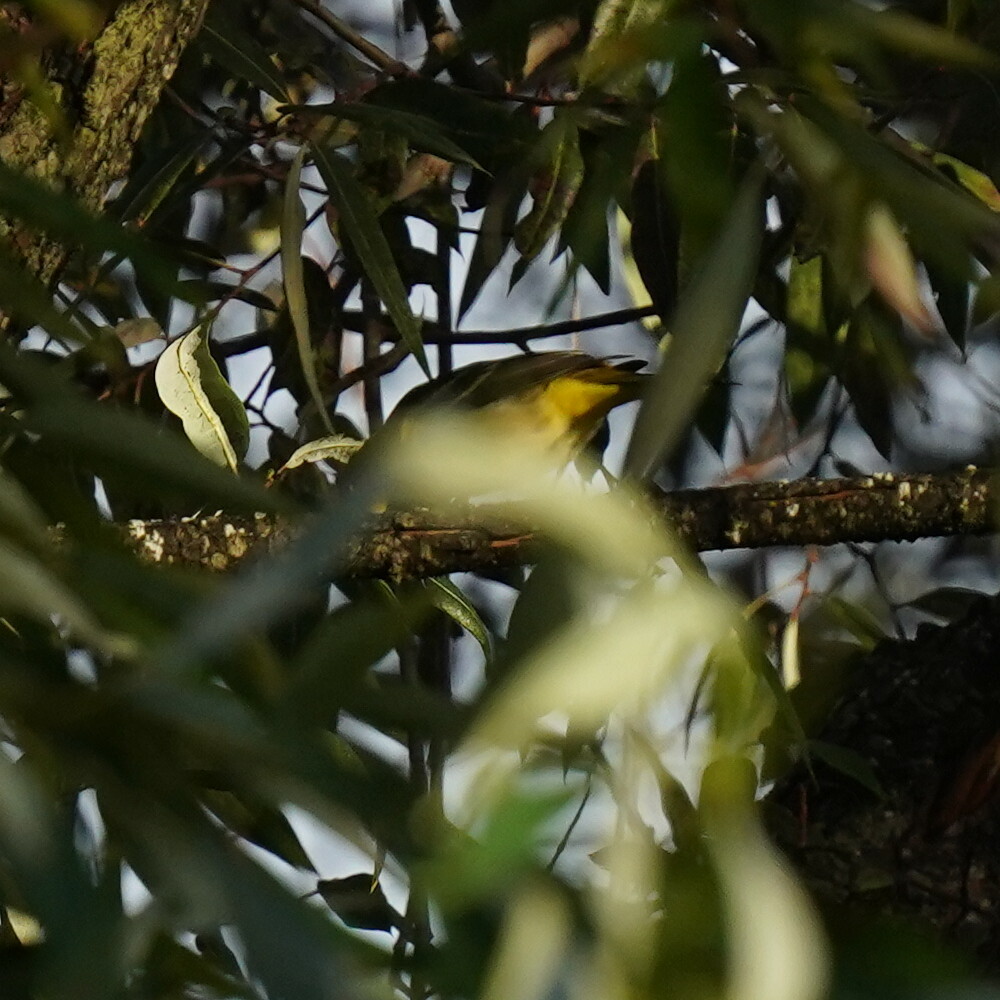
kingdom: Animalia
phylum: Chordata
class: Aves
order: Passeriformes
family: Parulidae
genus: Setophaga
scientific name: Setophaga petechia
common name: Yellow warbler
